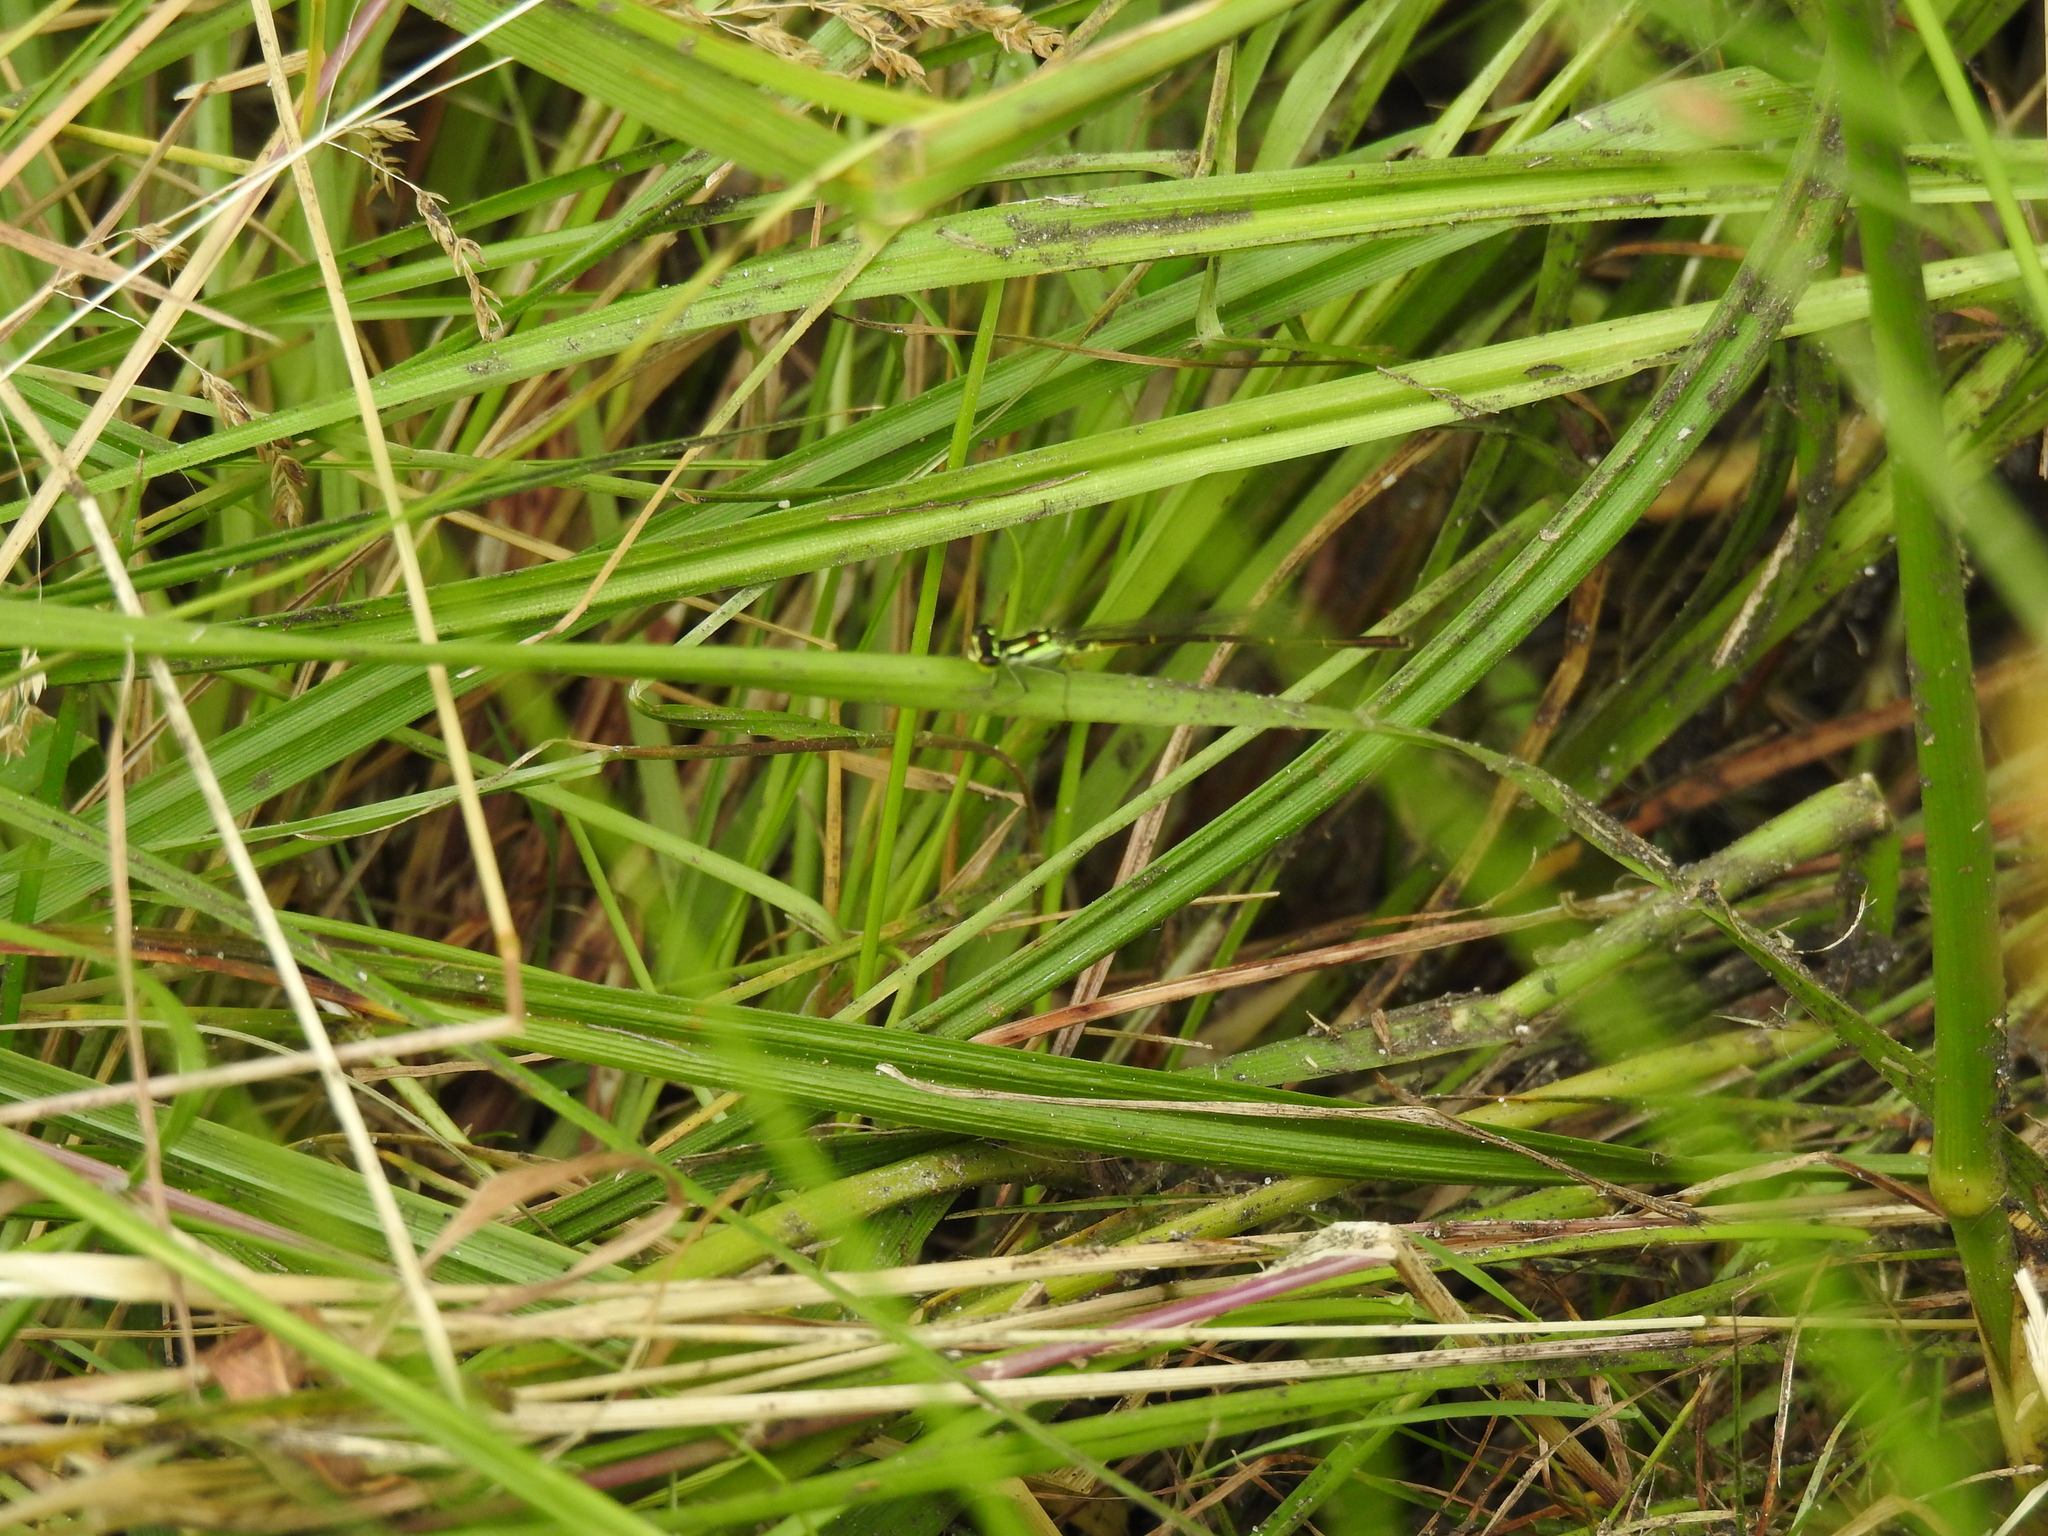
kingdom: Animalia
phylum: Arthropoda
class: Insecta
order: Odonata
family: Coenagrionidae
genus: Ischnura
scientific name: Ischnura posita
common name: Fragile forktail
